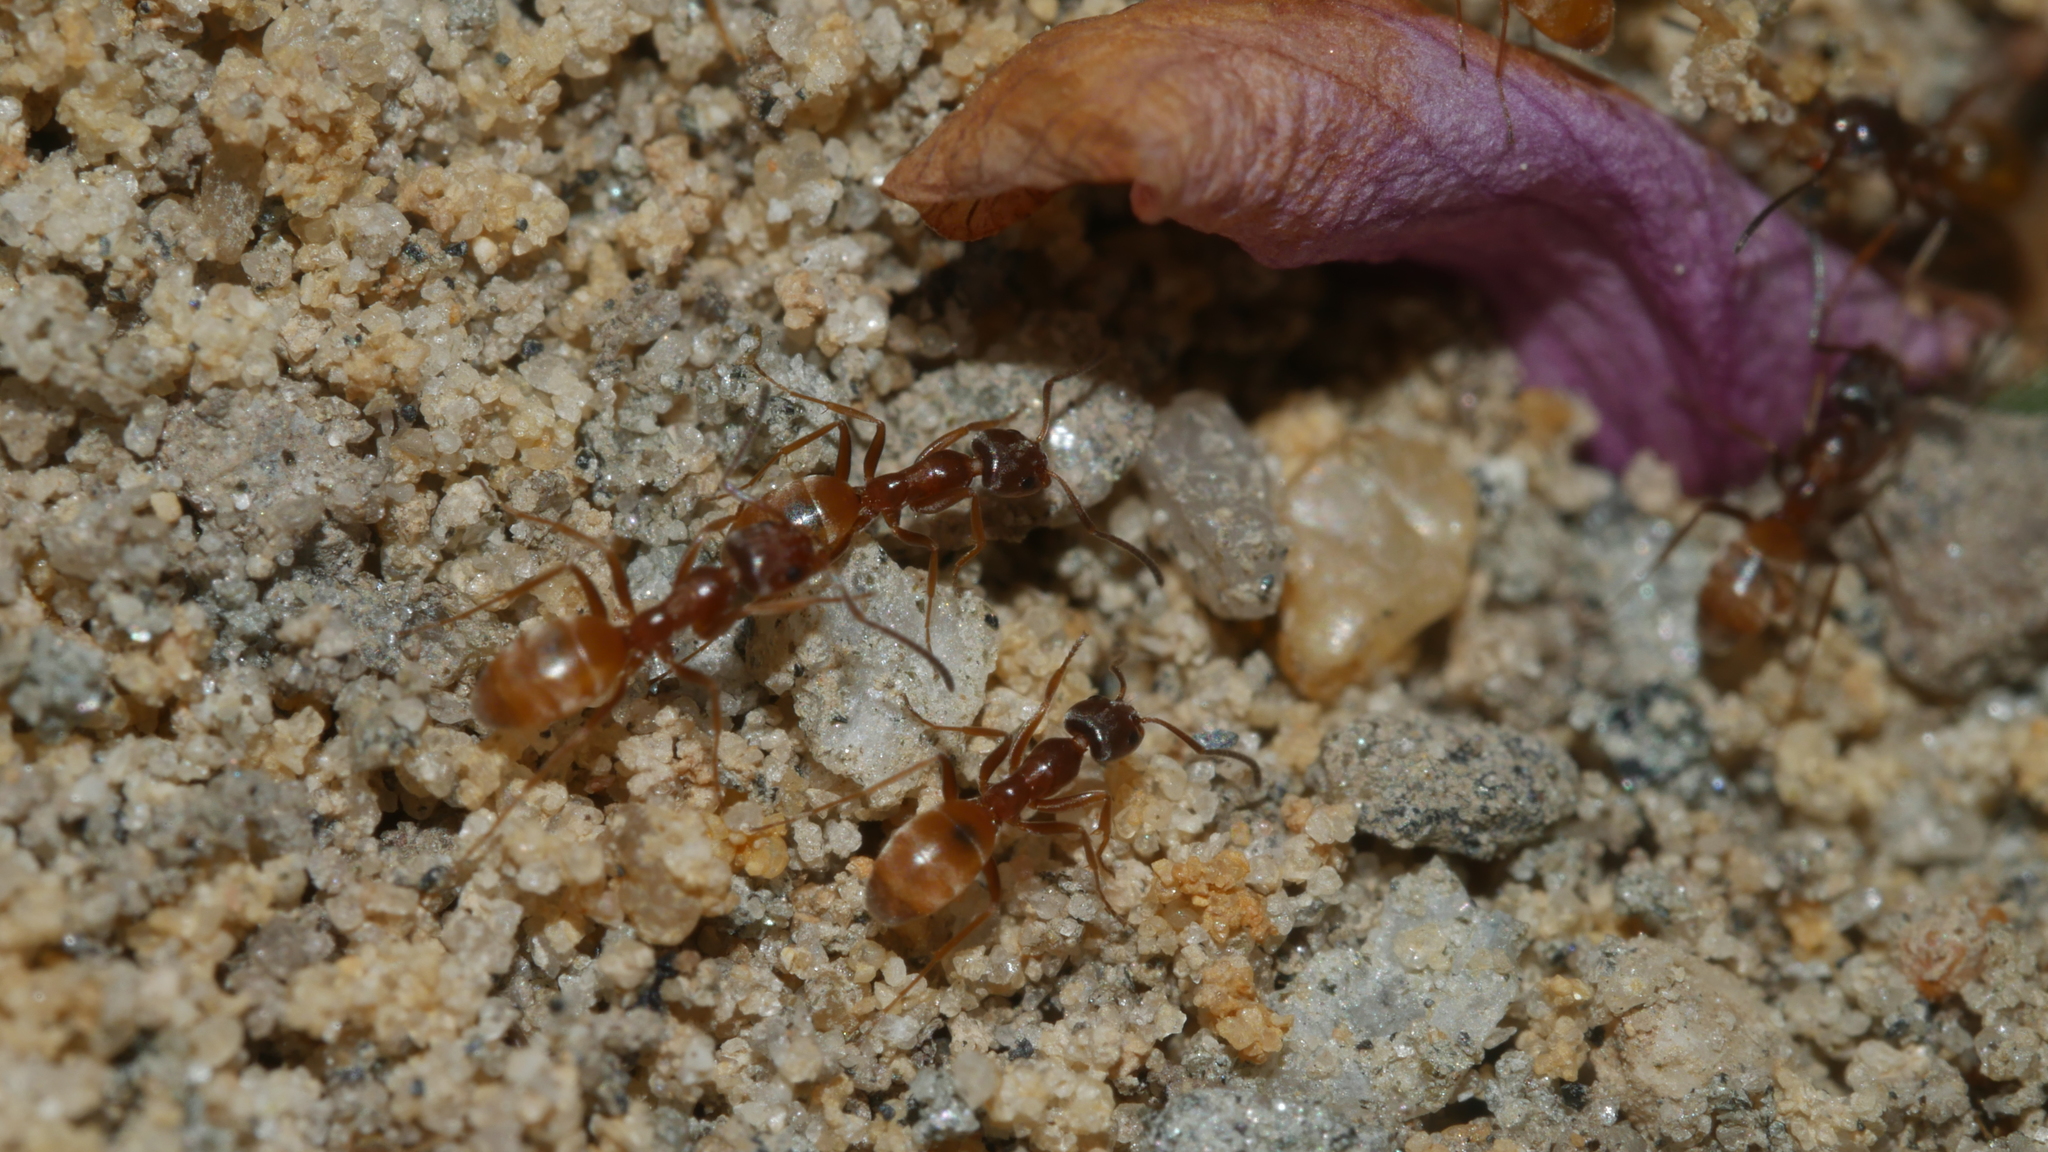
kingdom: Animalia
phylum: Arthropoda
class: Insecta
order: Hymenoptera
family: Formicidae
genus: Forelius
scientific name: Forelius pruinosus
